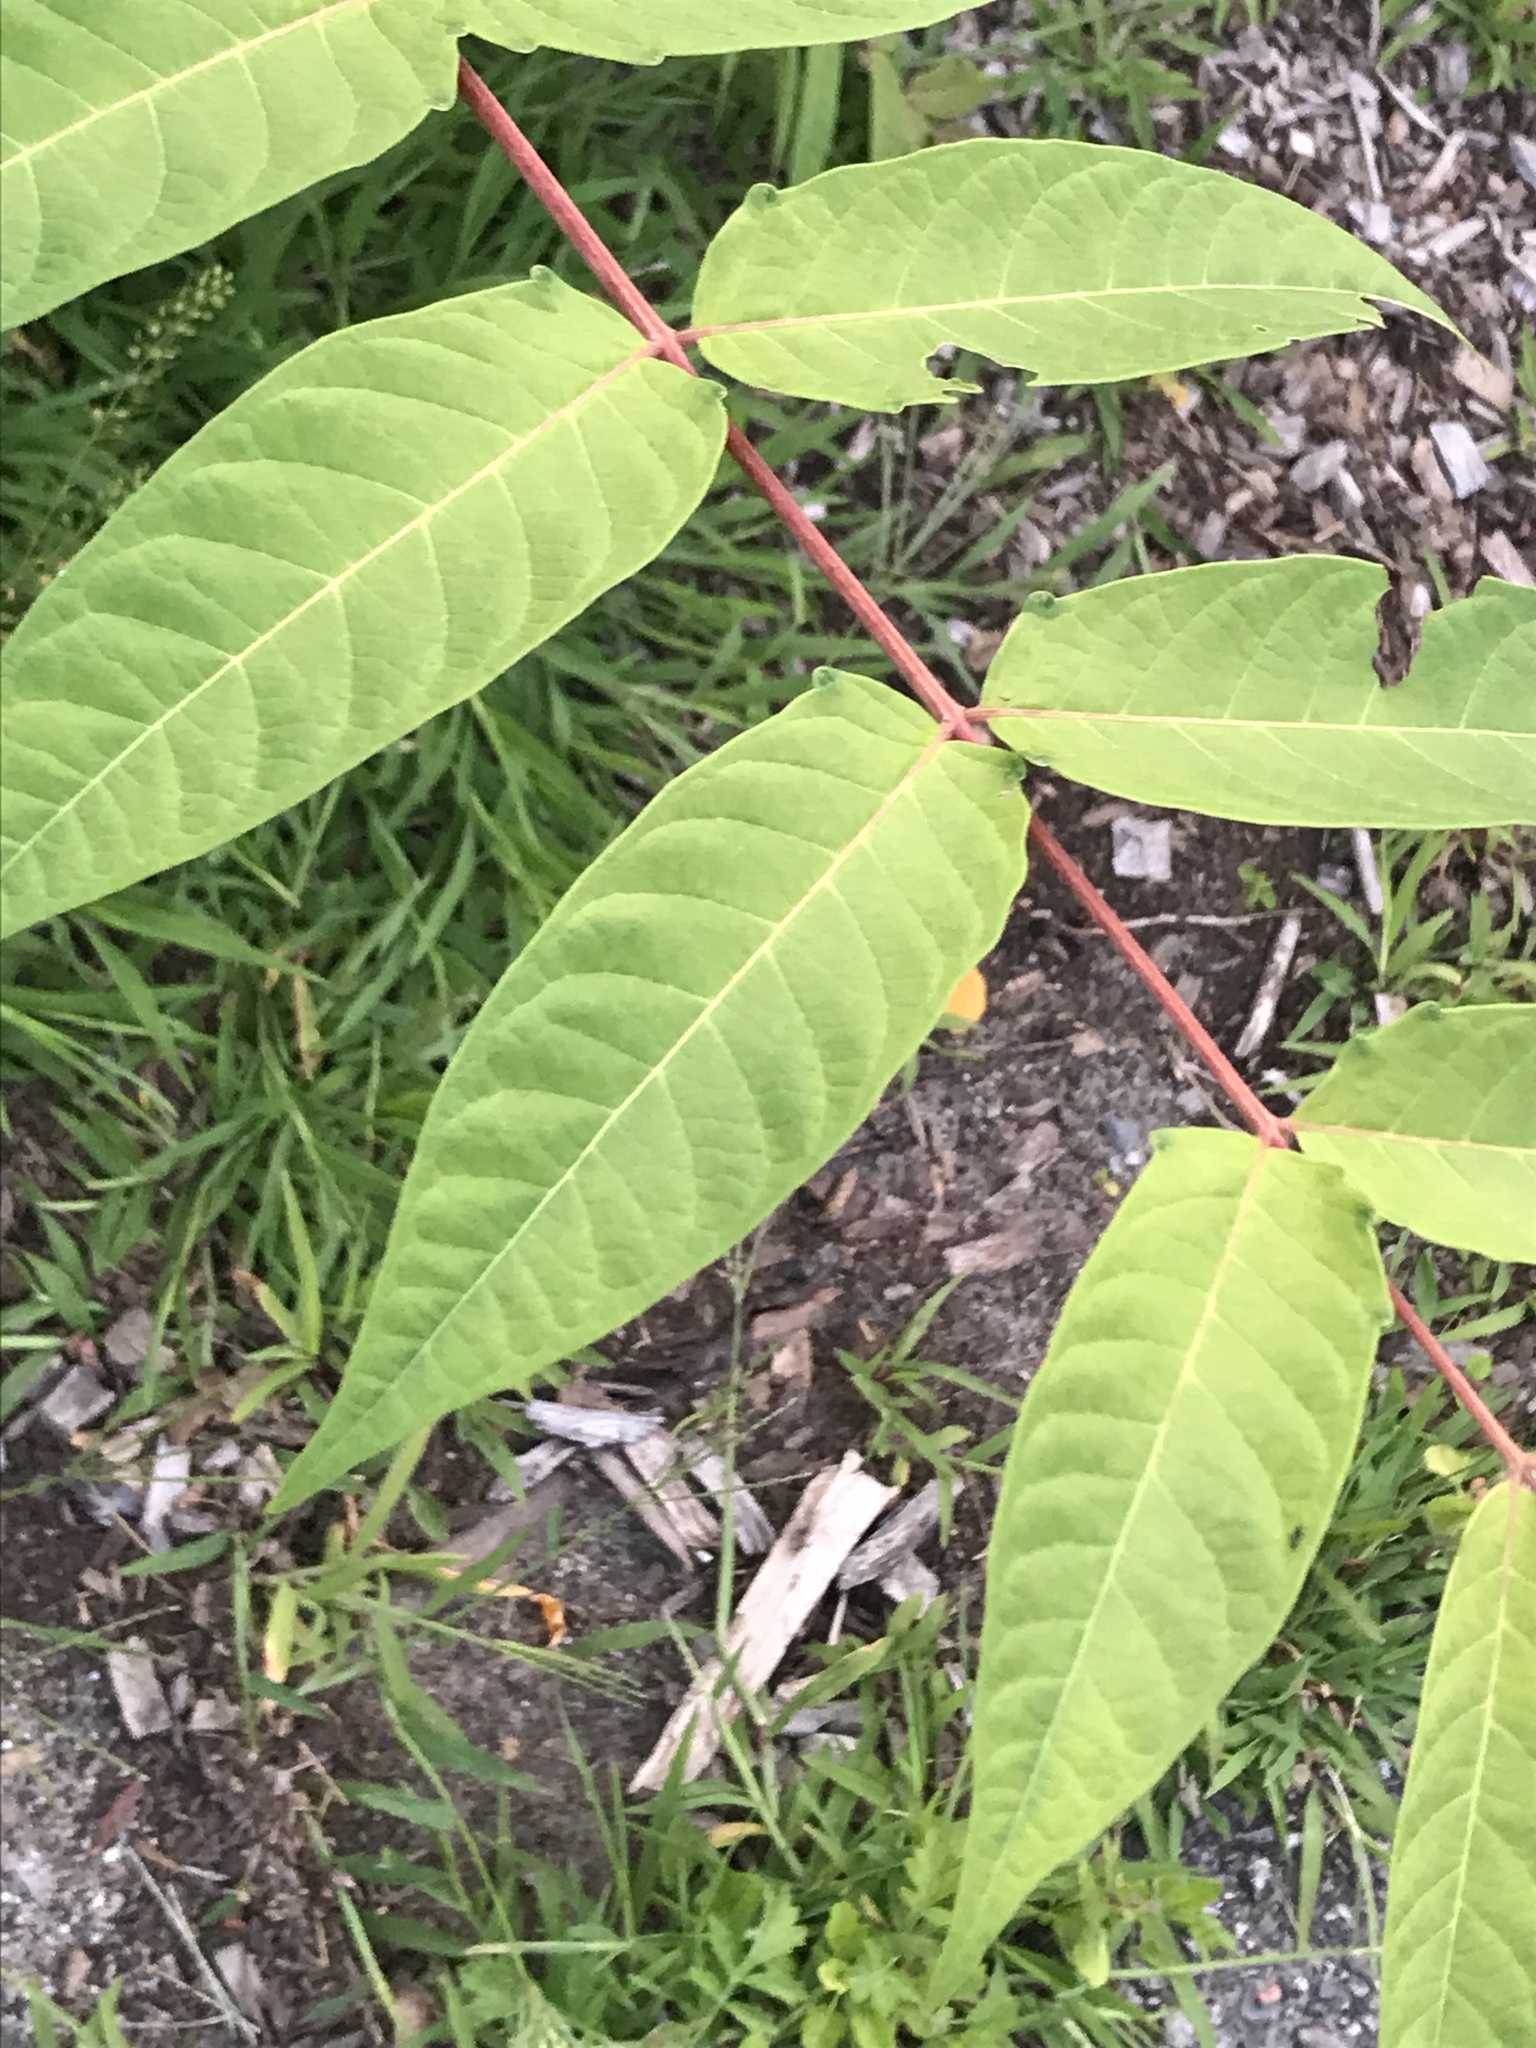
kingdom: Plantae
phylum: Tracheophyta
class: Magnoliopsida
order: Sapindales
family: Simaroubaceae
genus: Ailanthus
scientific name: Ailanthus altissima
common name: Tree-of-heaven
